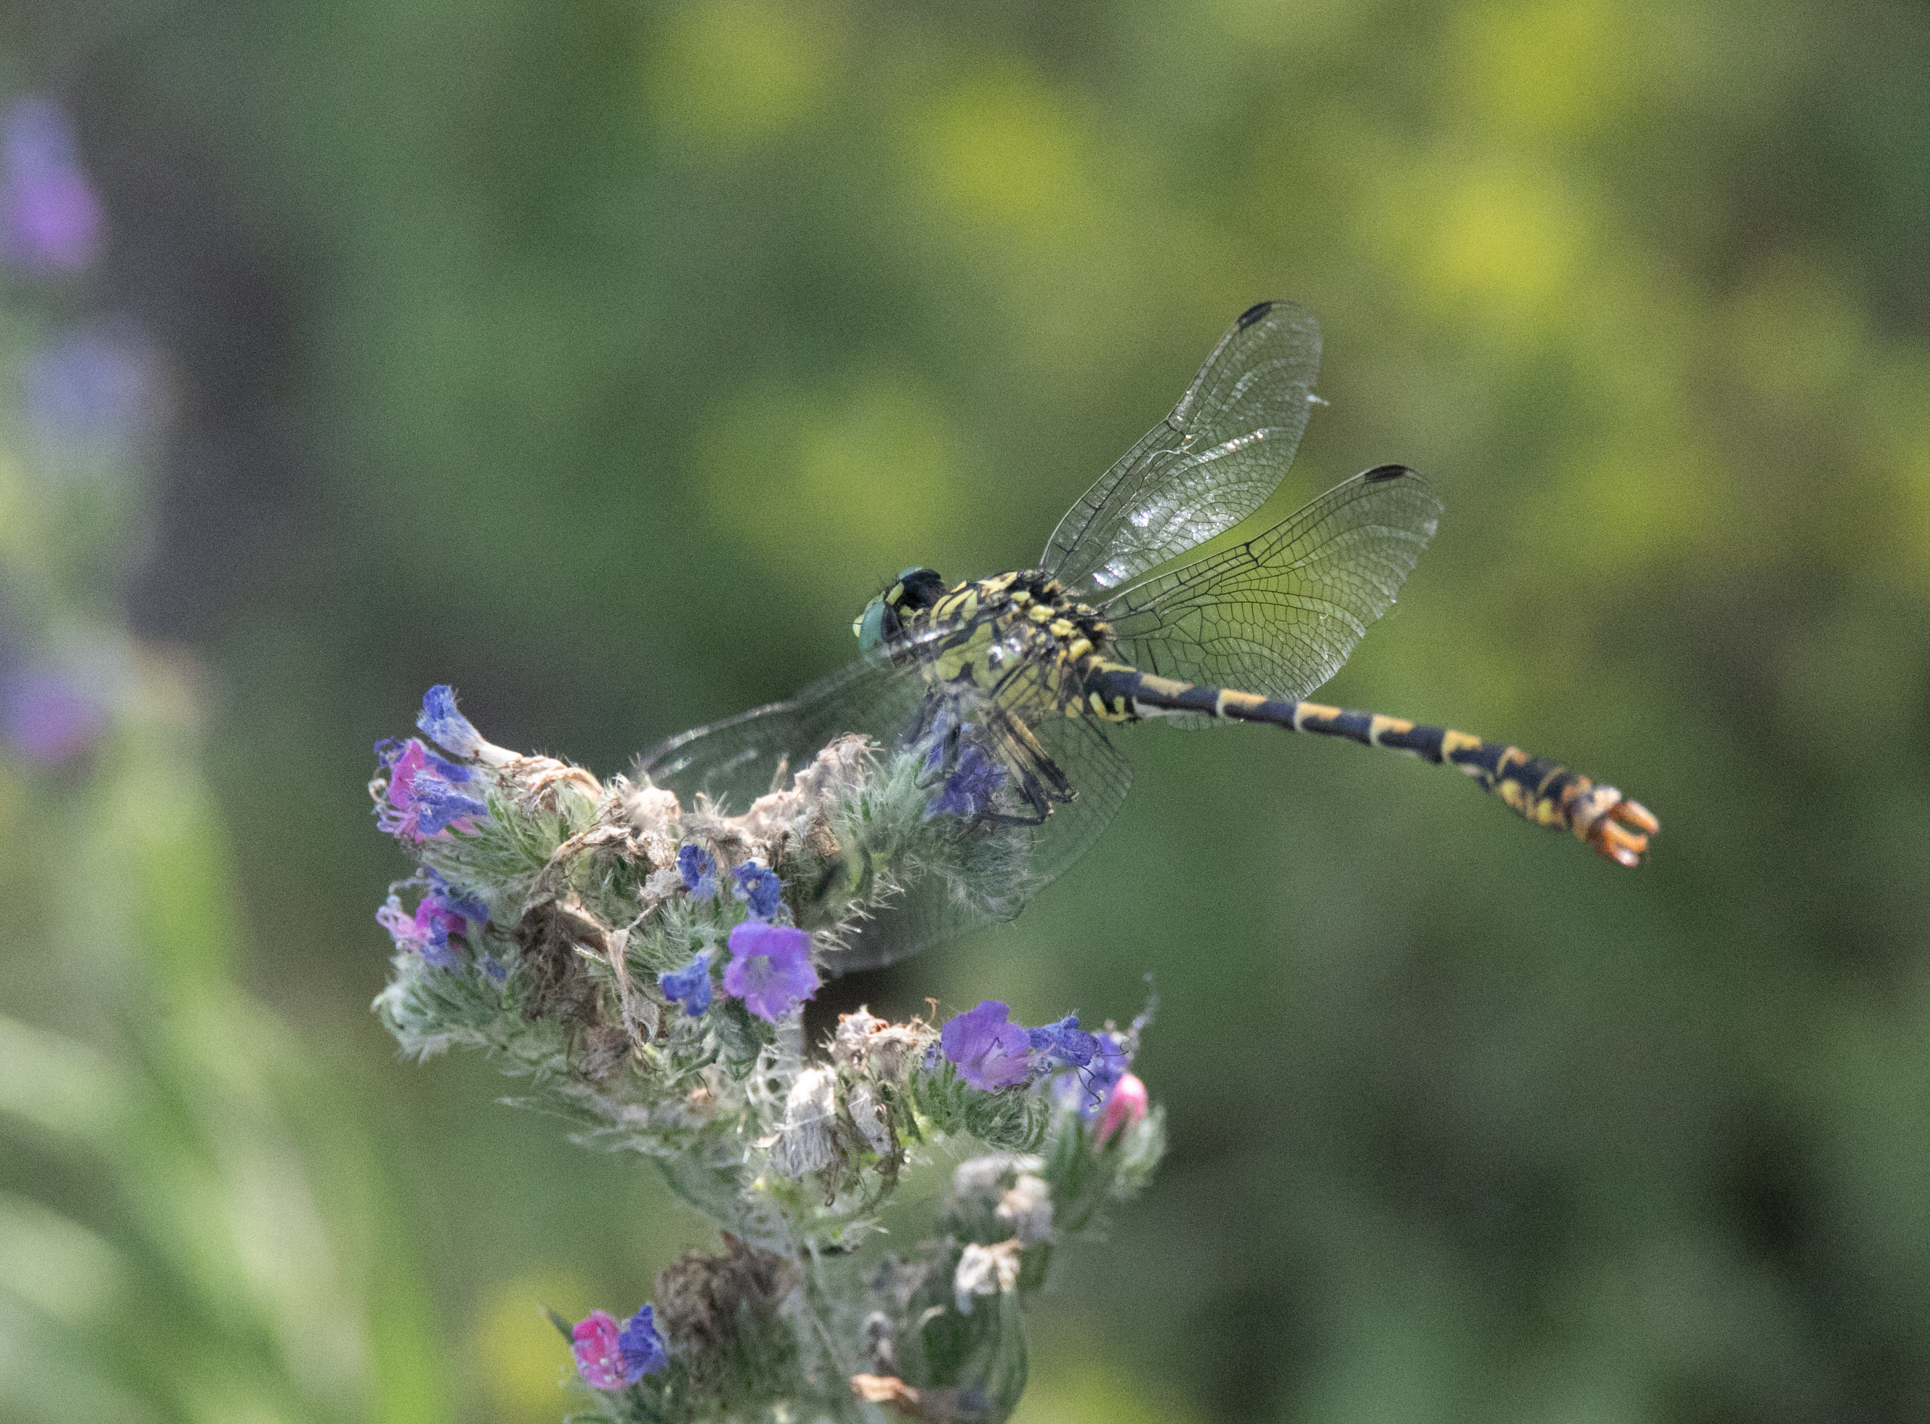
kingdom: Animalia
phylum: Arthropoda
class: Insecta
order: Odonata
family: Gomphidae
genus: Onychogomphus
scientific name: Onychogomphus forcipatus
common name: Small pincertail
